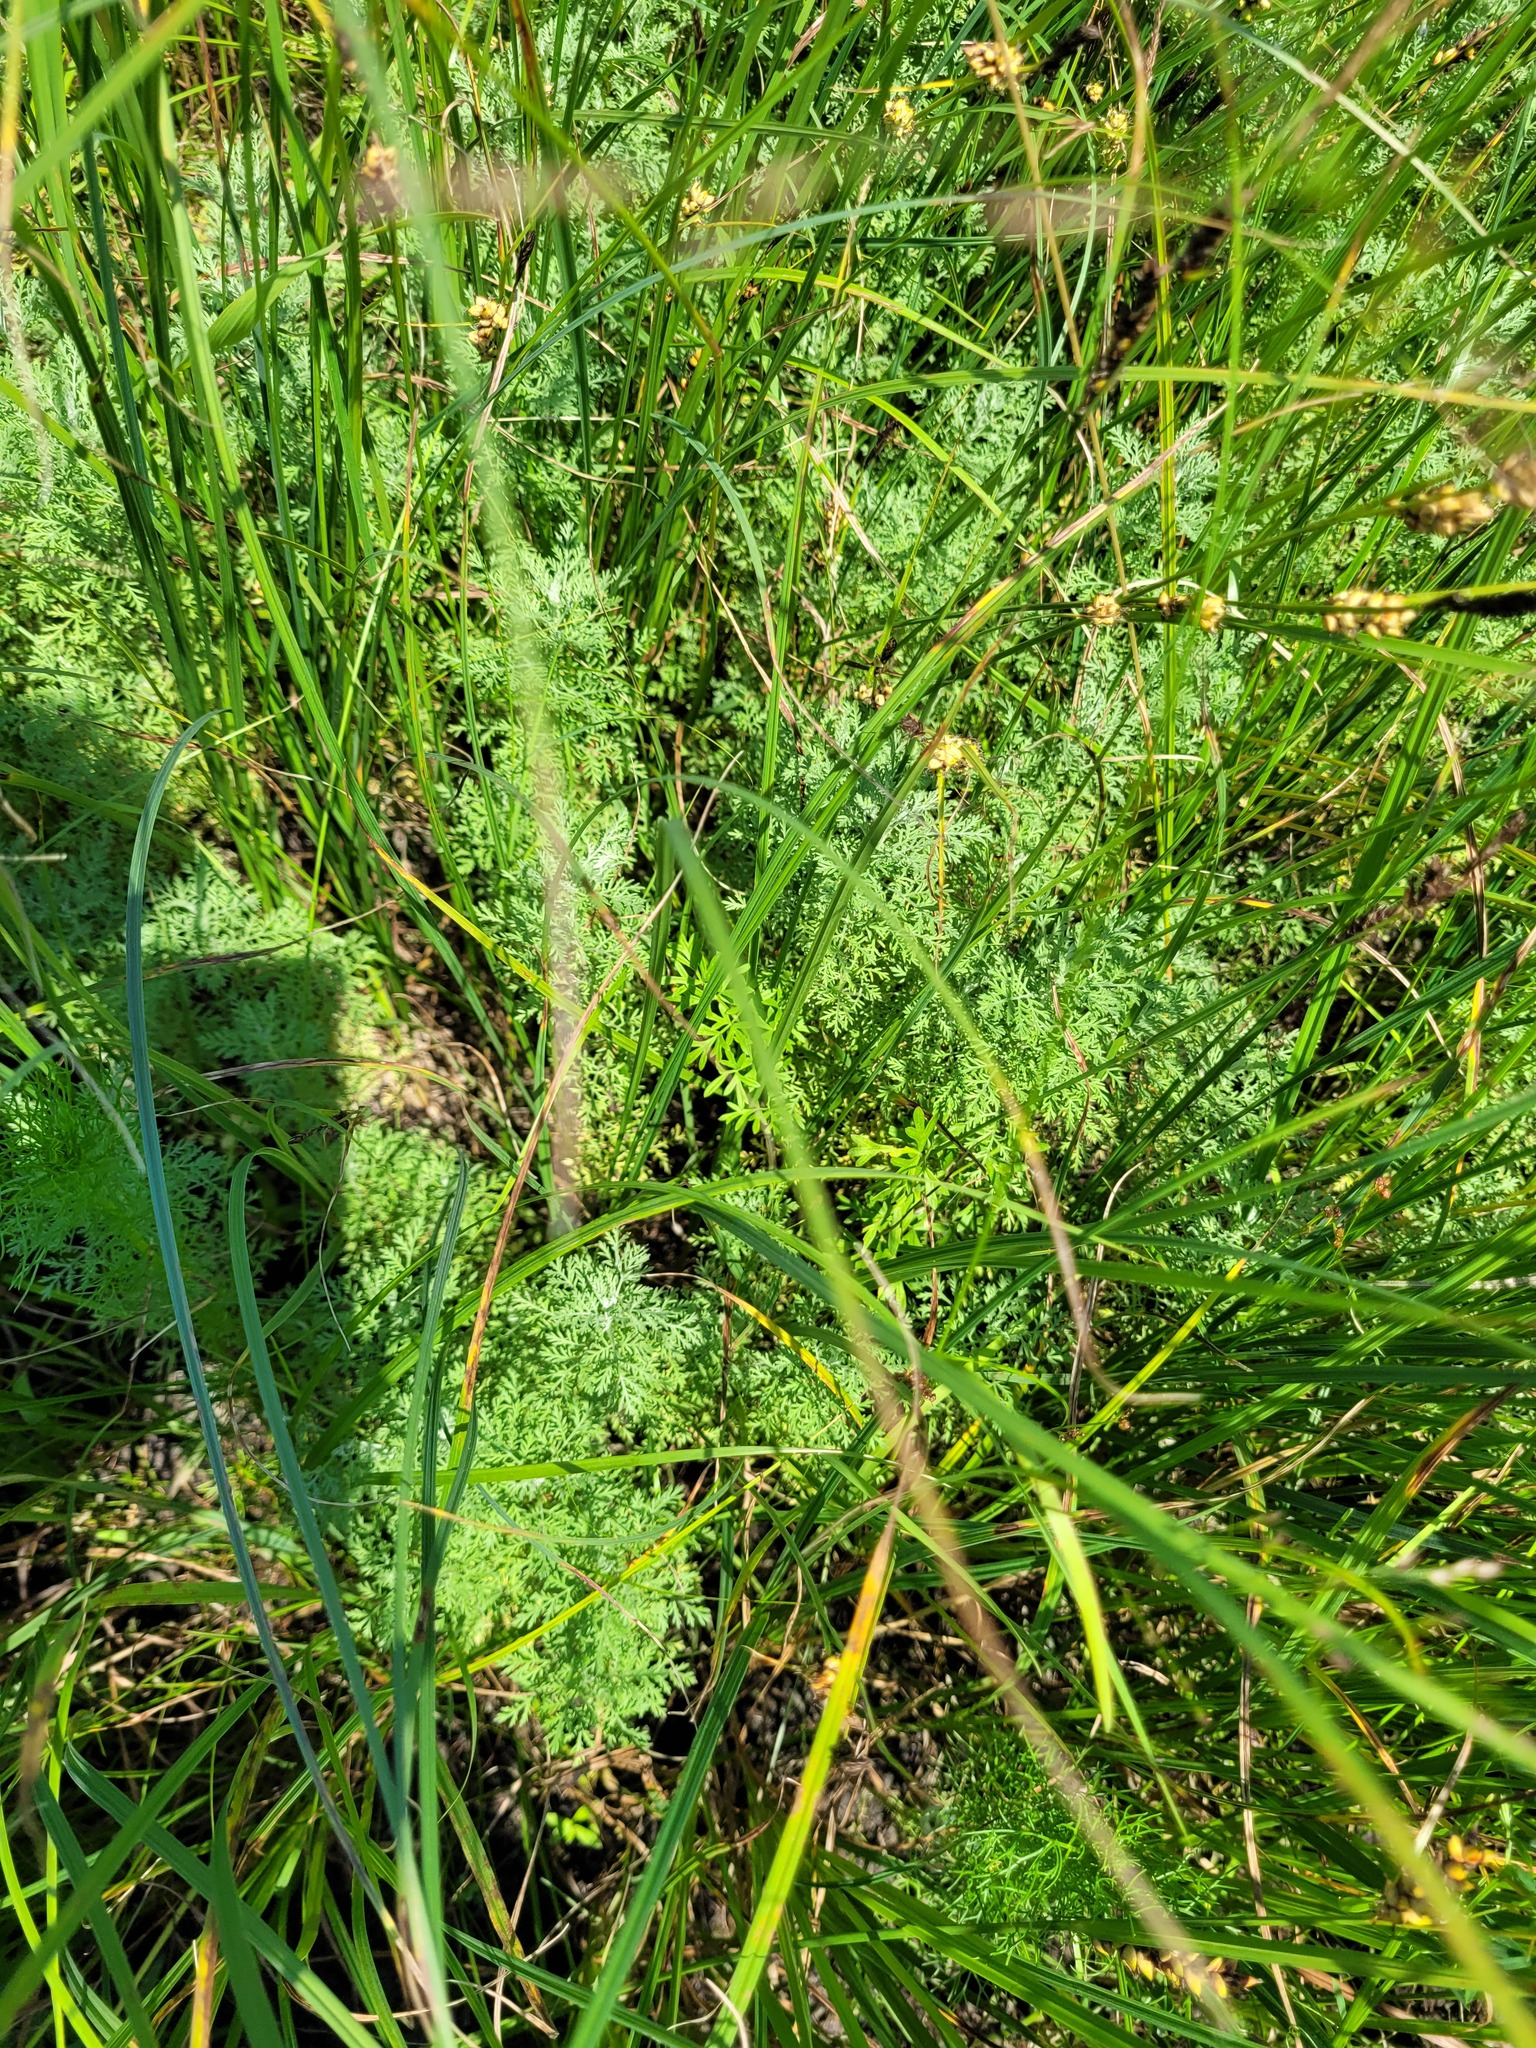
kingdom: Plantae
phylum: Tracheophyta
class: Magnoliopsida
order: Asterales
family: Asteraceae
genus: Artemisia
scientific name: Artemisia pontica
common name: Roman wormwood
